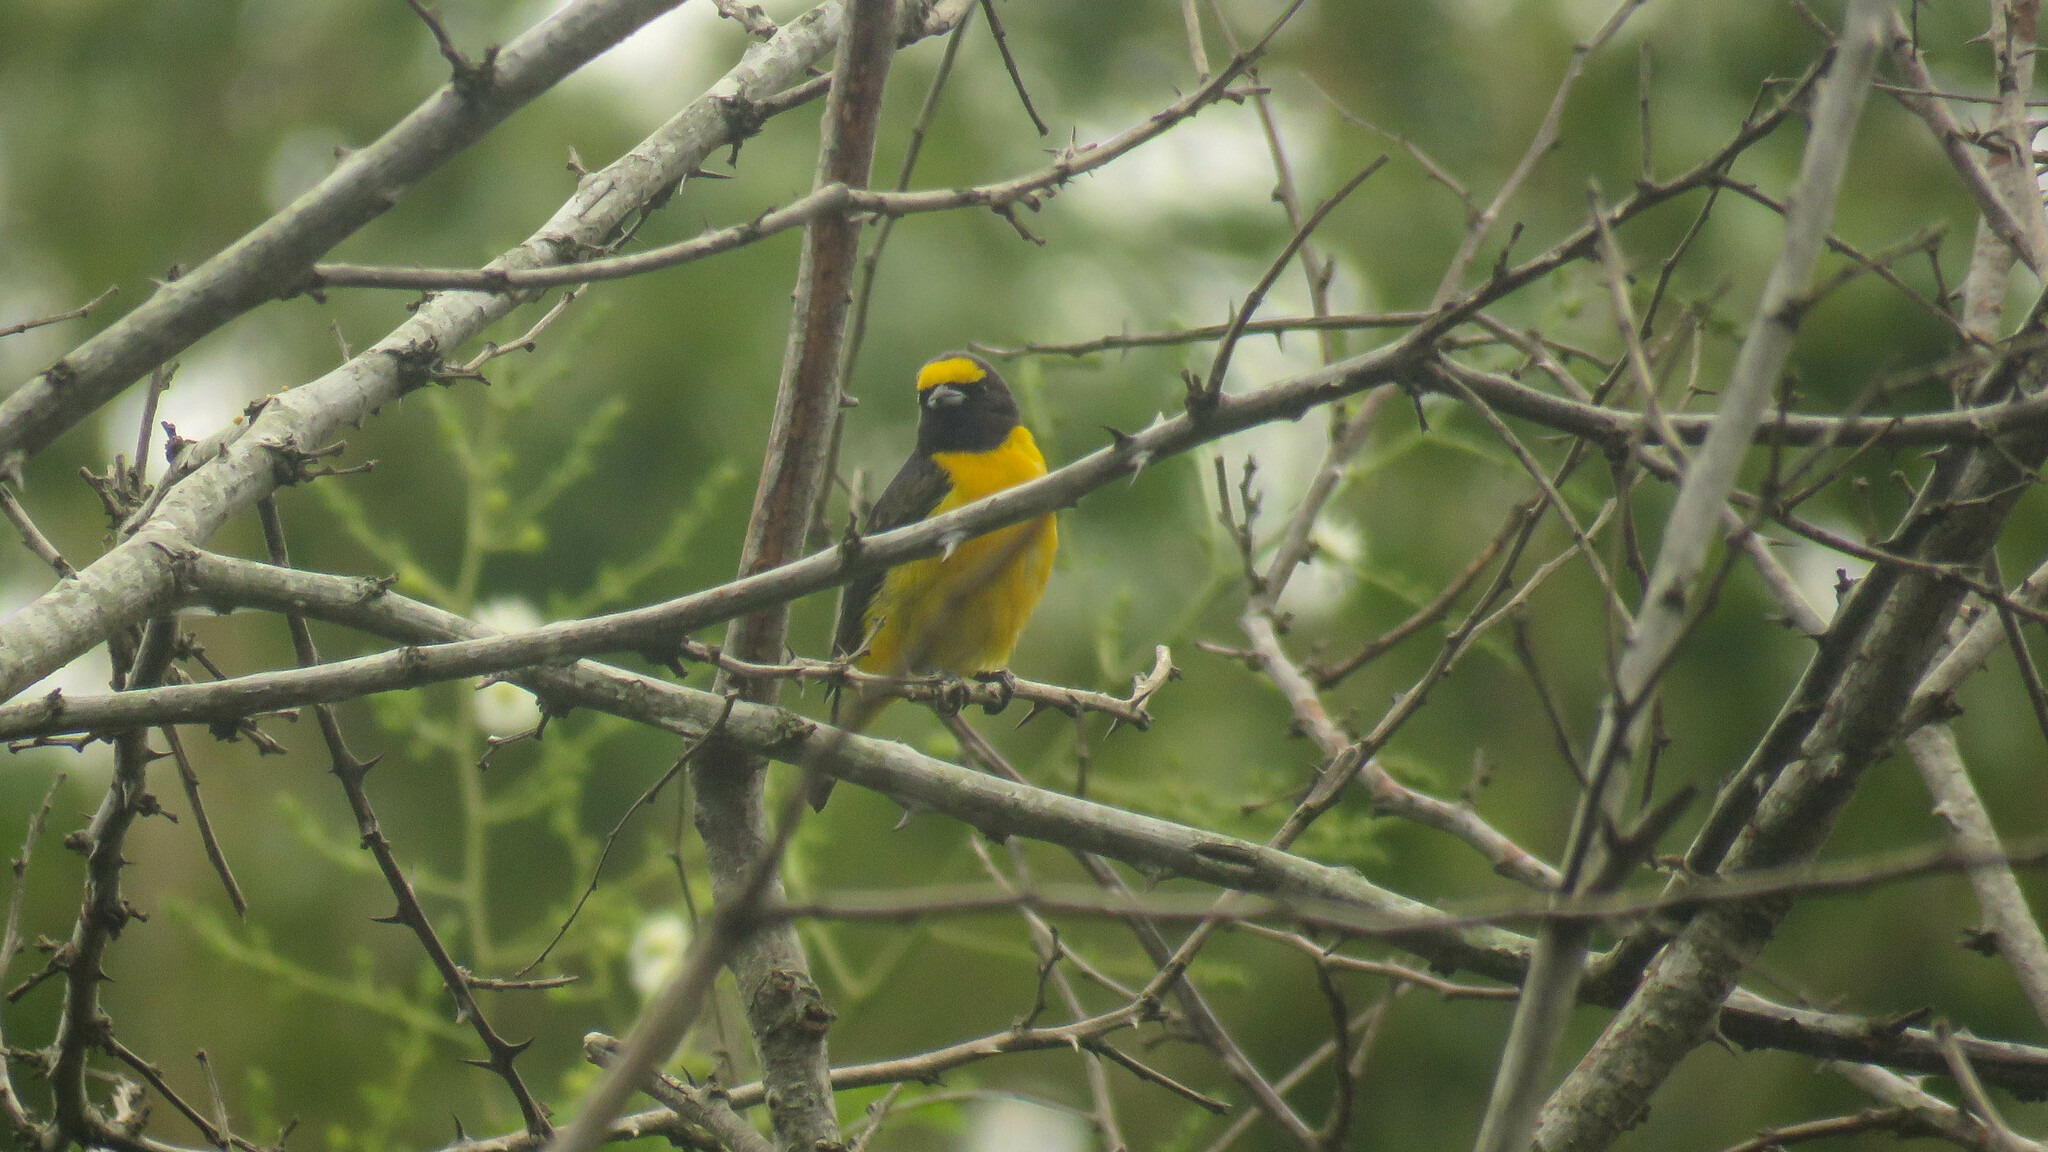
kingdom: Animalia
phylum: Chordata
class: Aves
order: Passeriformes
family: Fringillidae
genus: Euphonia
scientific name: Euphonia chlorotica
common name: Purple-throated euphonia
